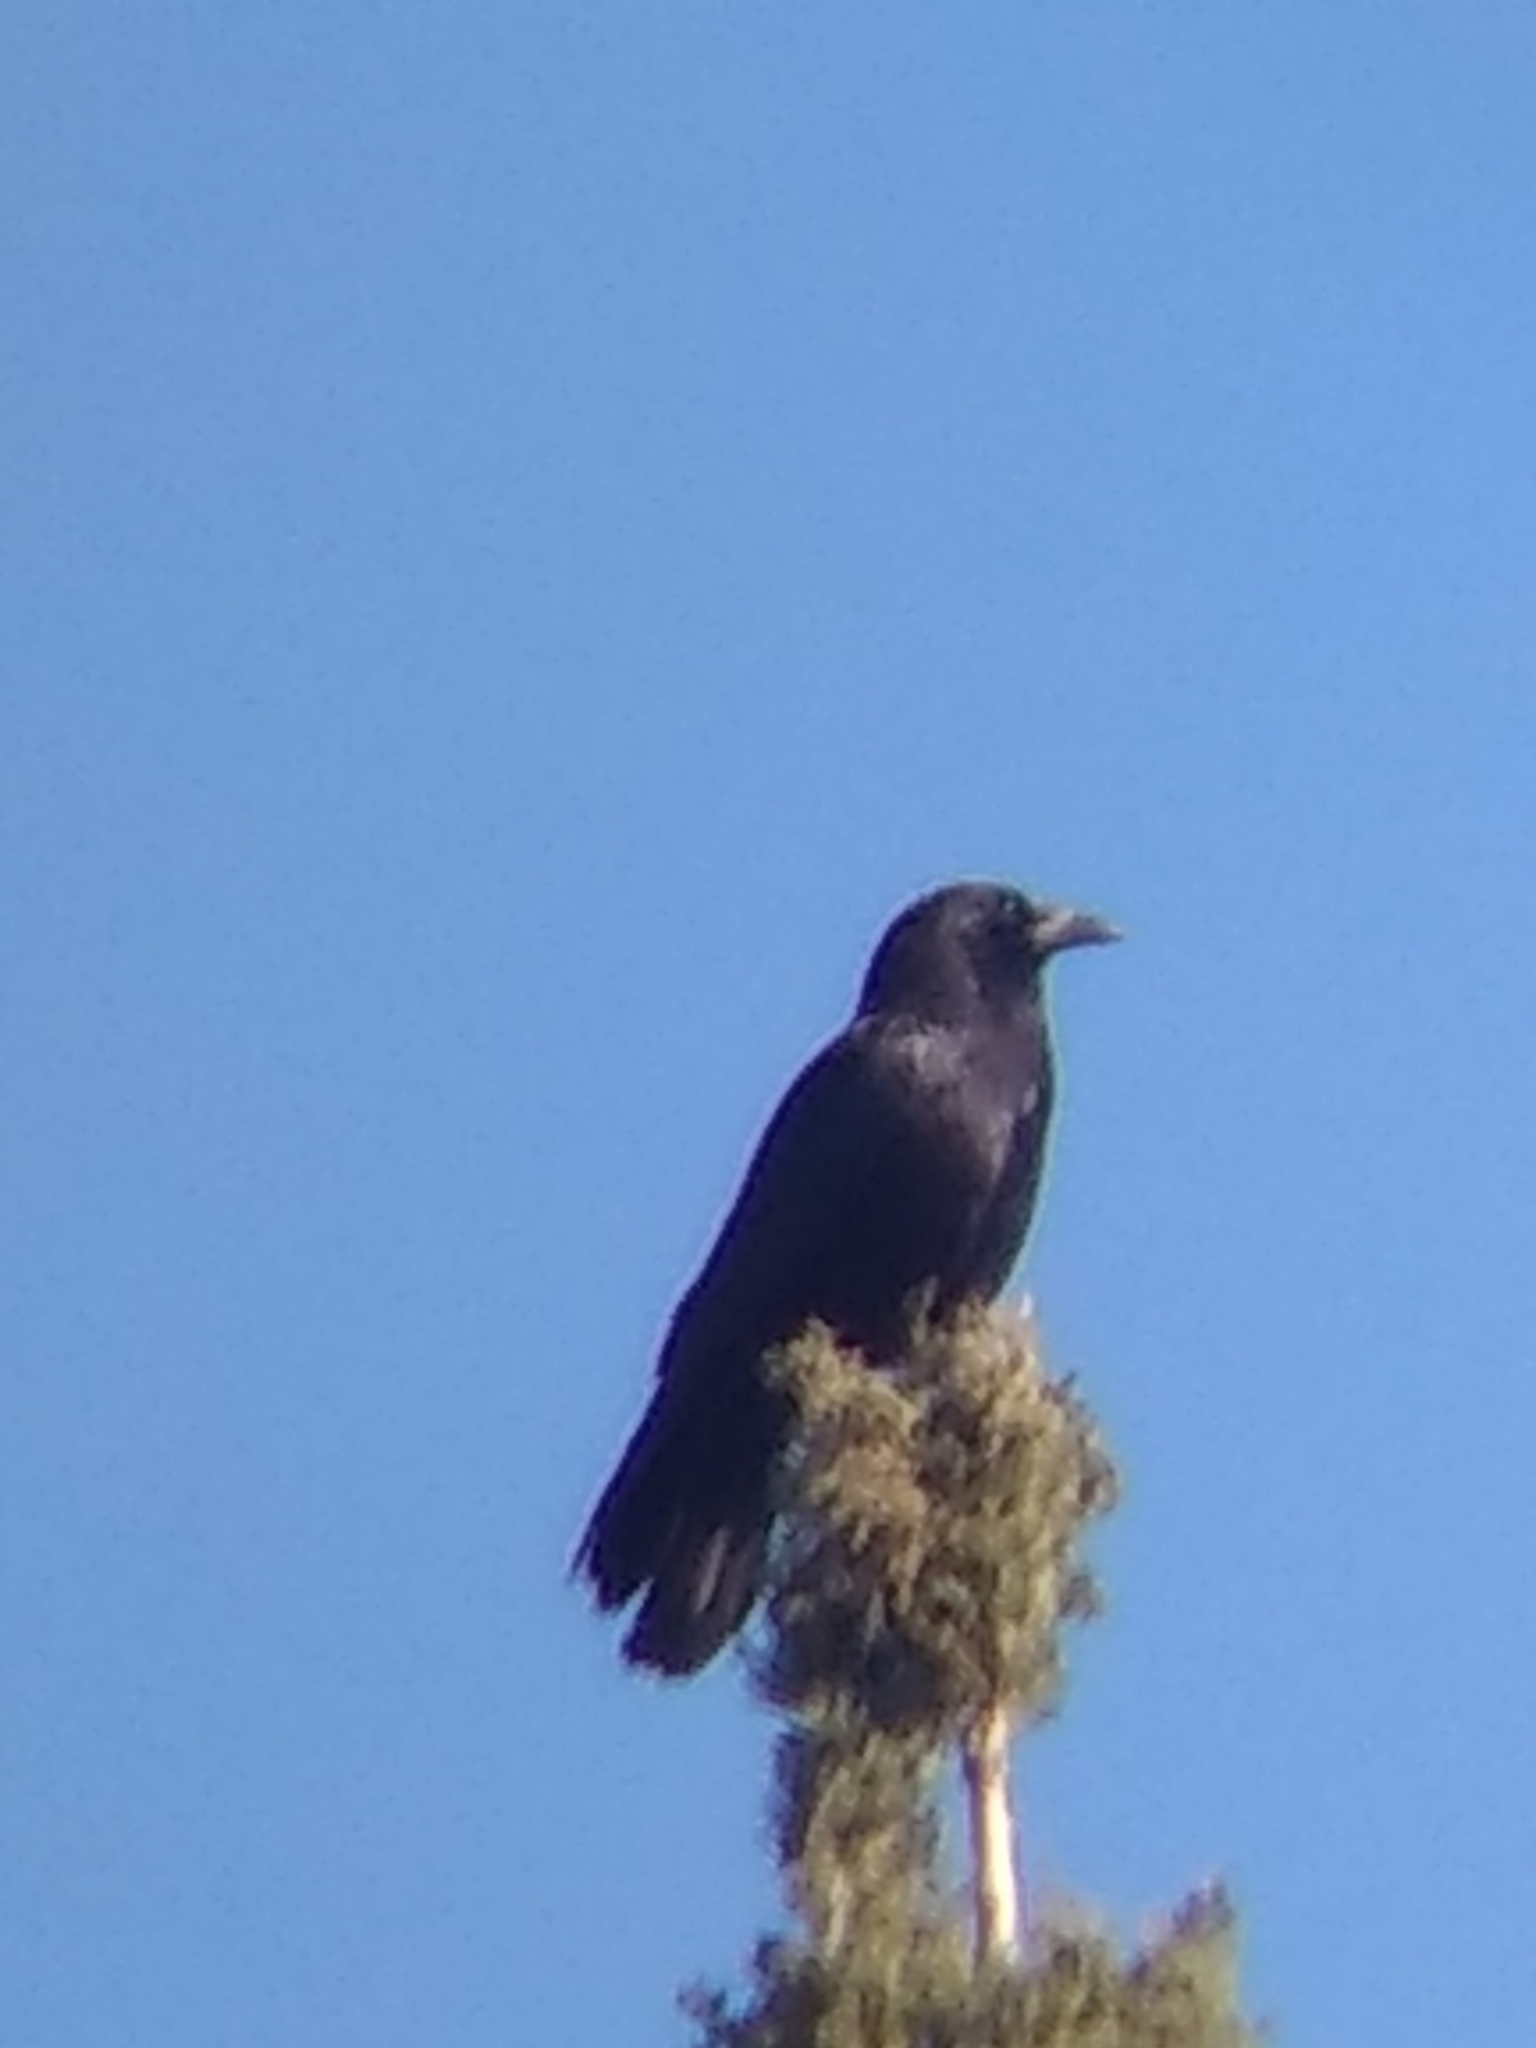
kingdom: Animalia
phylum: Chordata
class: Aves
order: Passeriformes
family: Corvidae
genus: Corvus
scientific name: Corvus brachyrhynchos
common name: American crow
